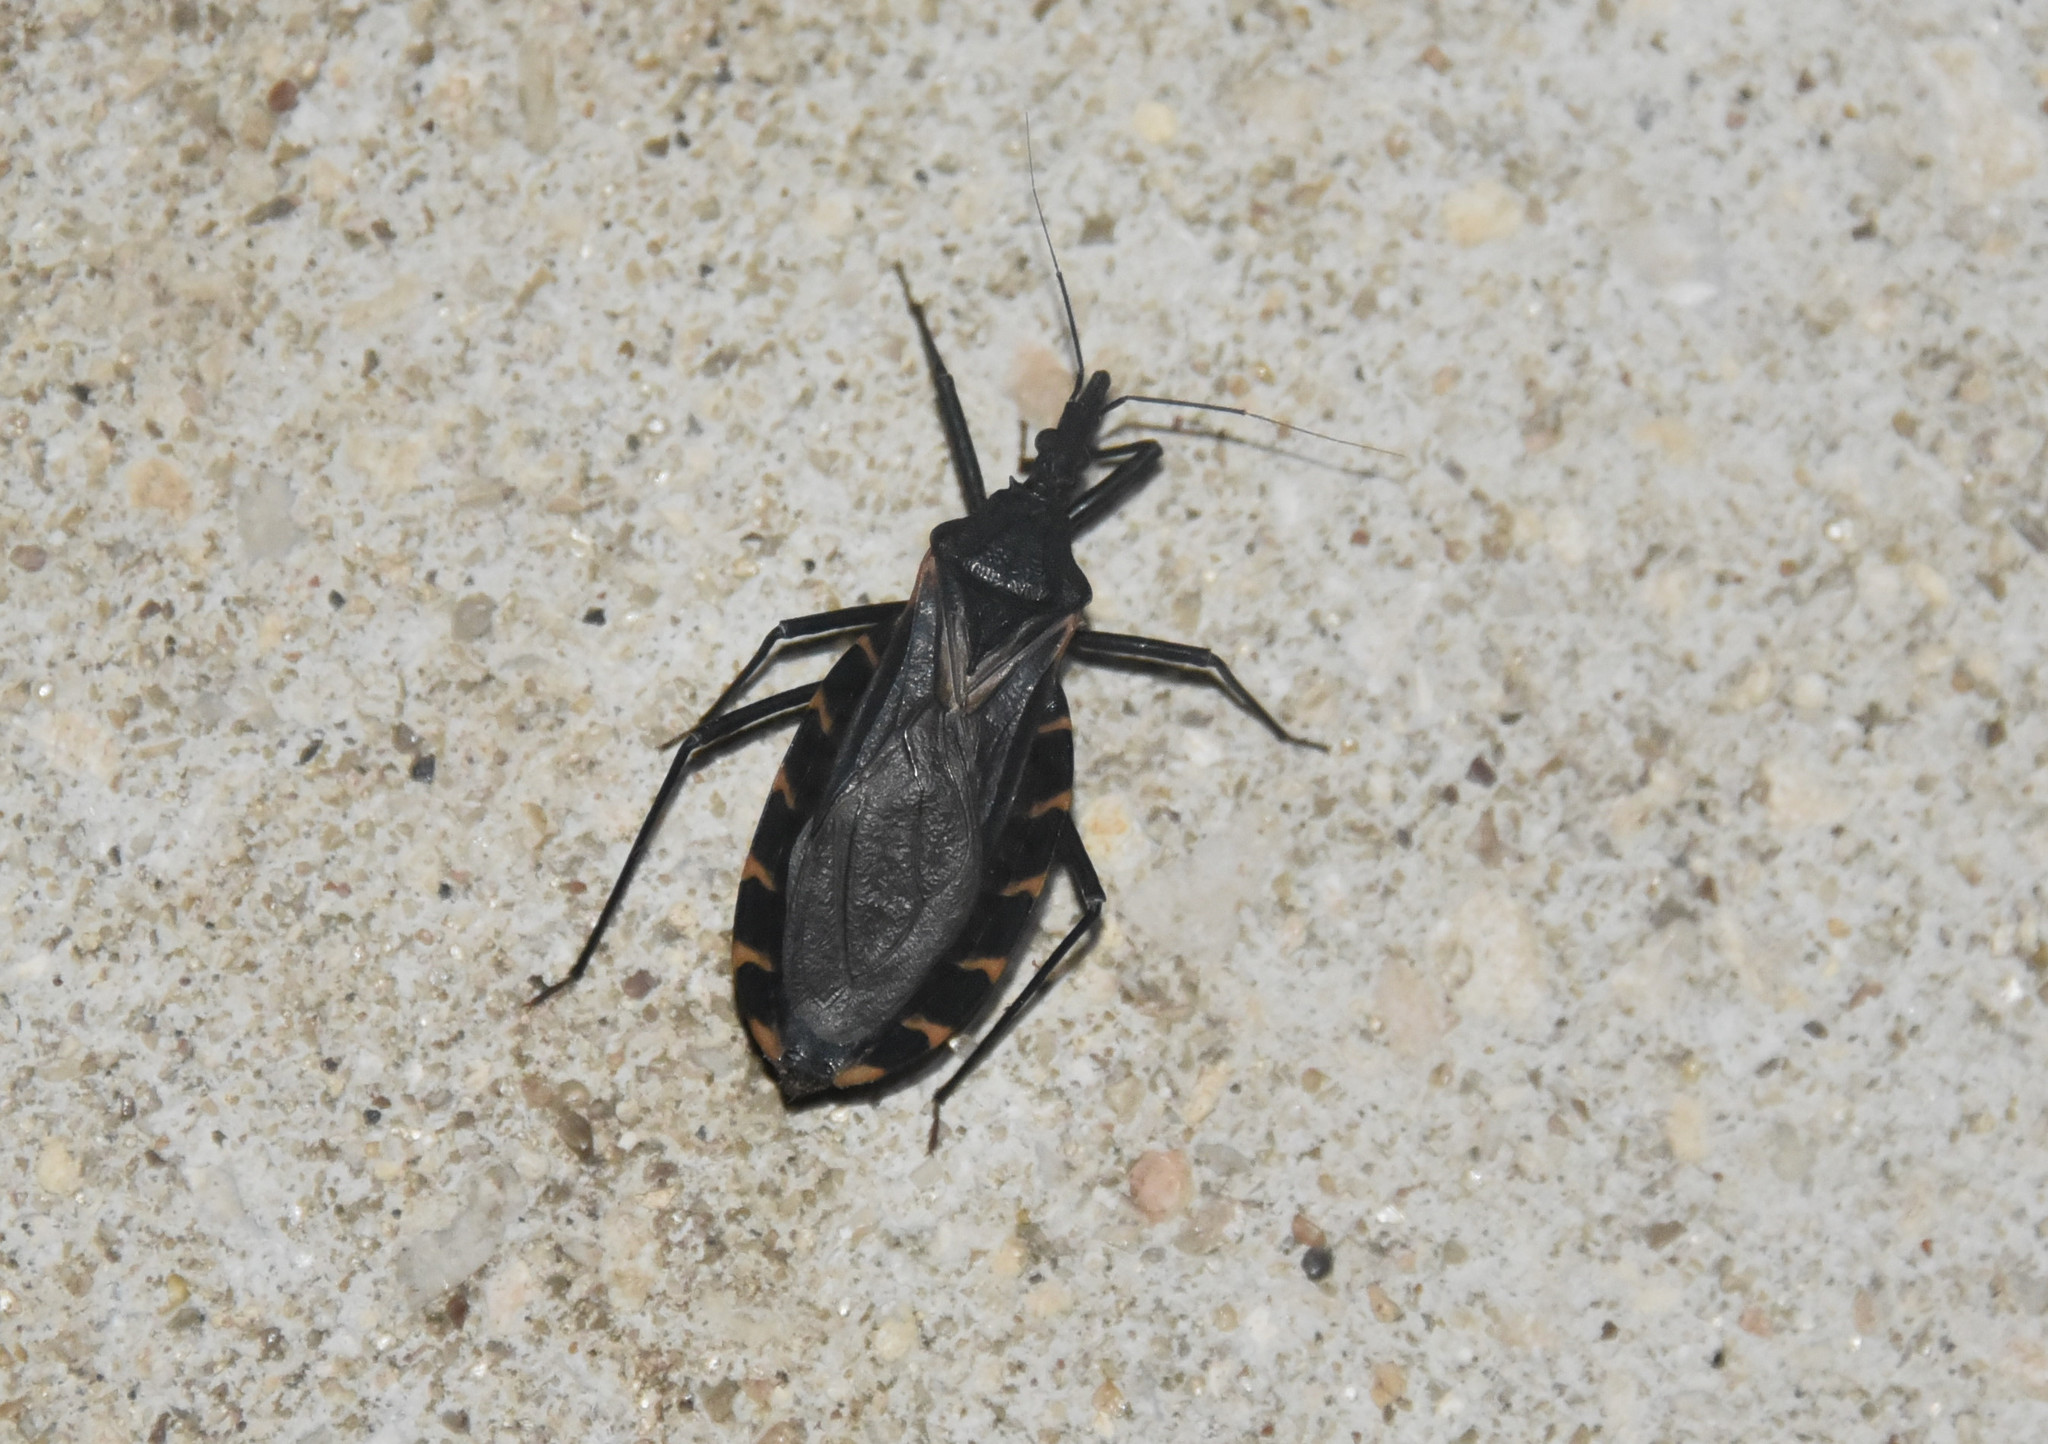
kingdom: Animalia
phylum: Arthropoda
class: Insecta
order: Hemiptera
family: Reduviidae
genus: Triatoma
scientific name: Triatoma gerstaeckeri
